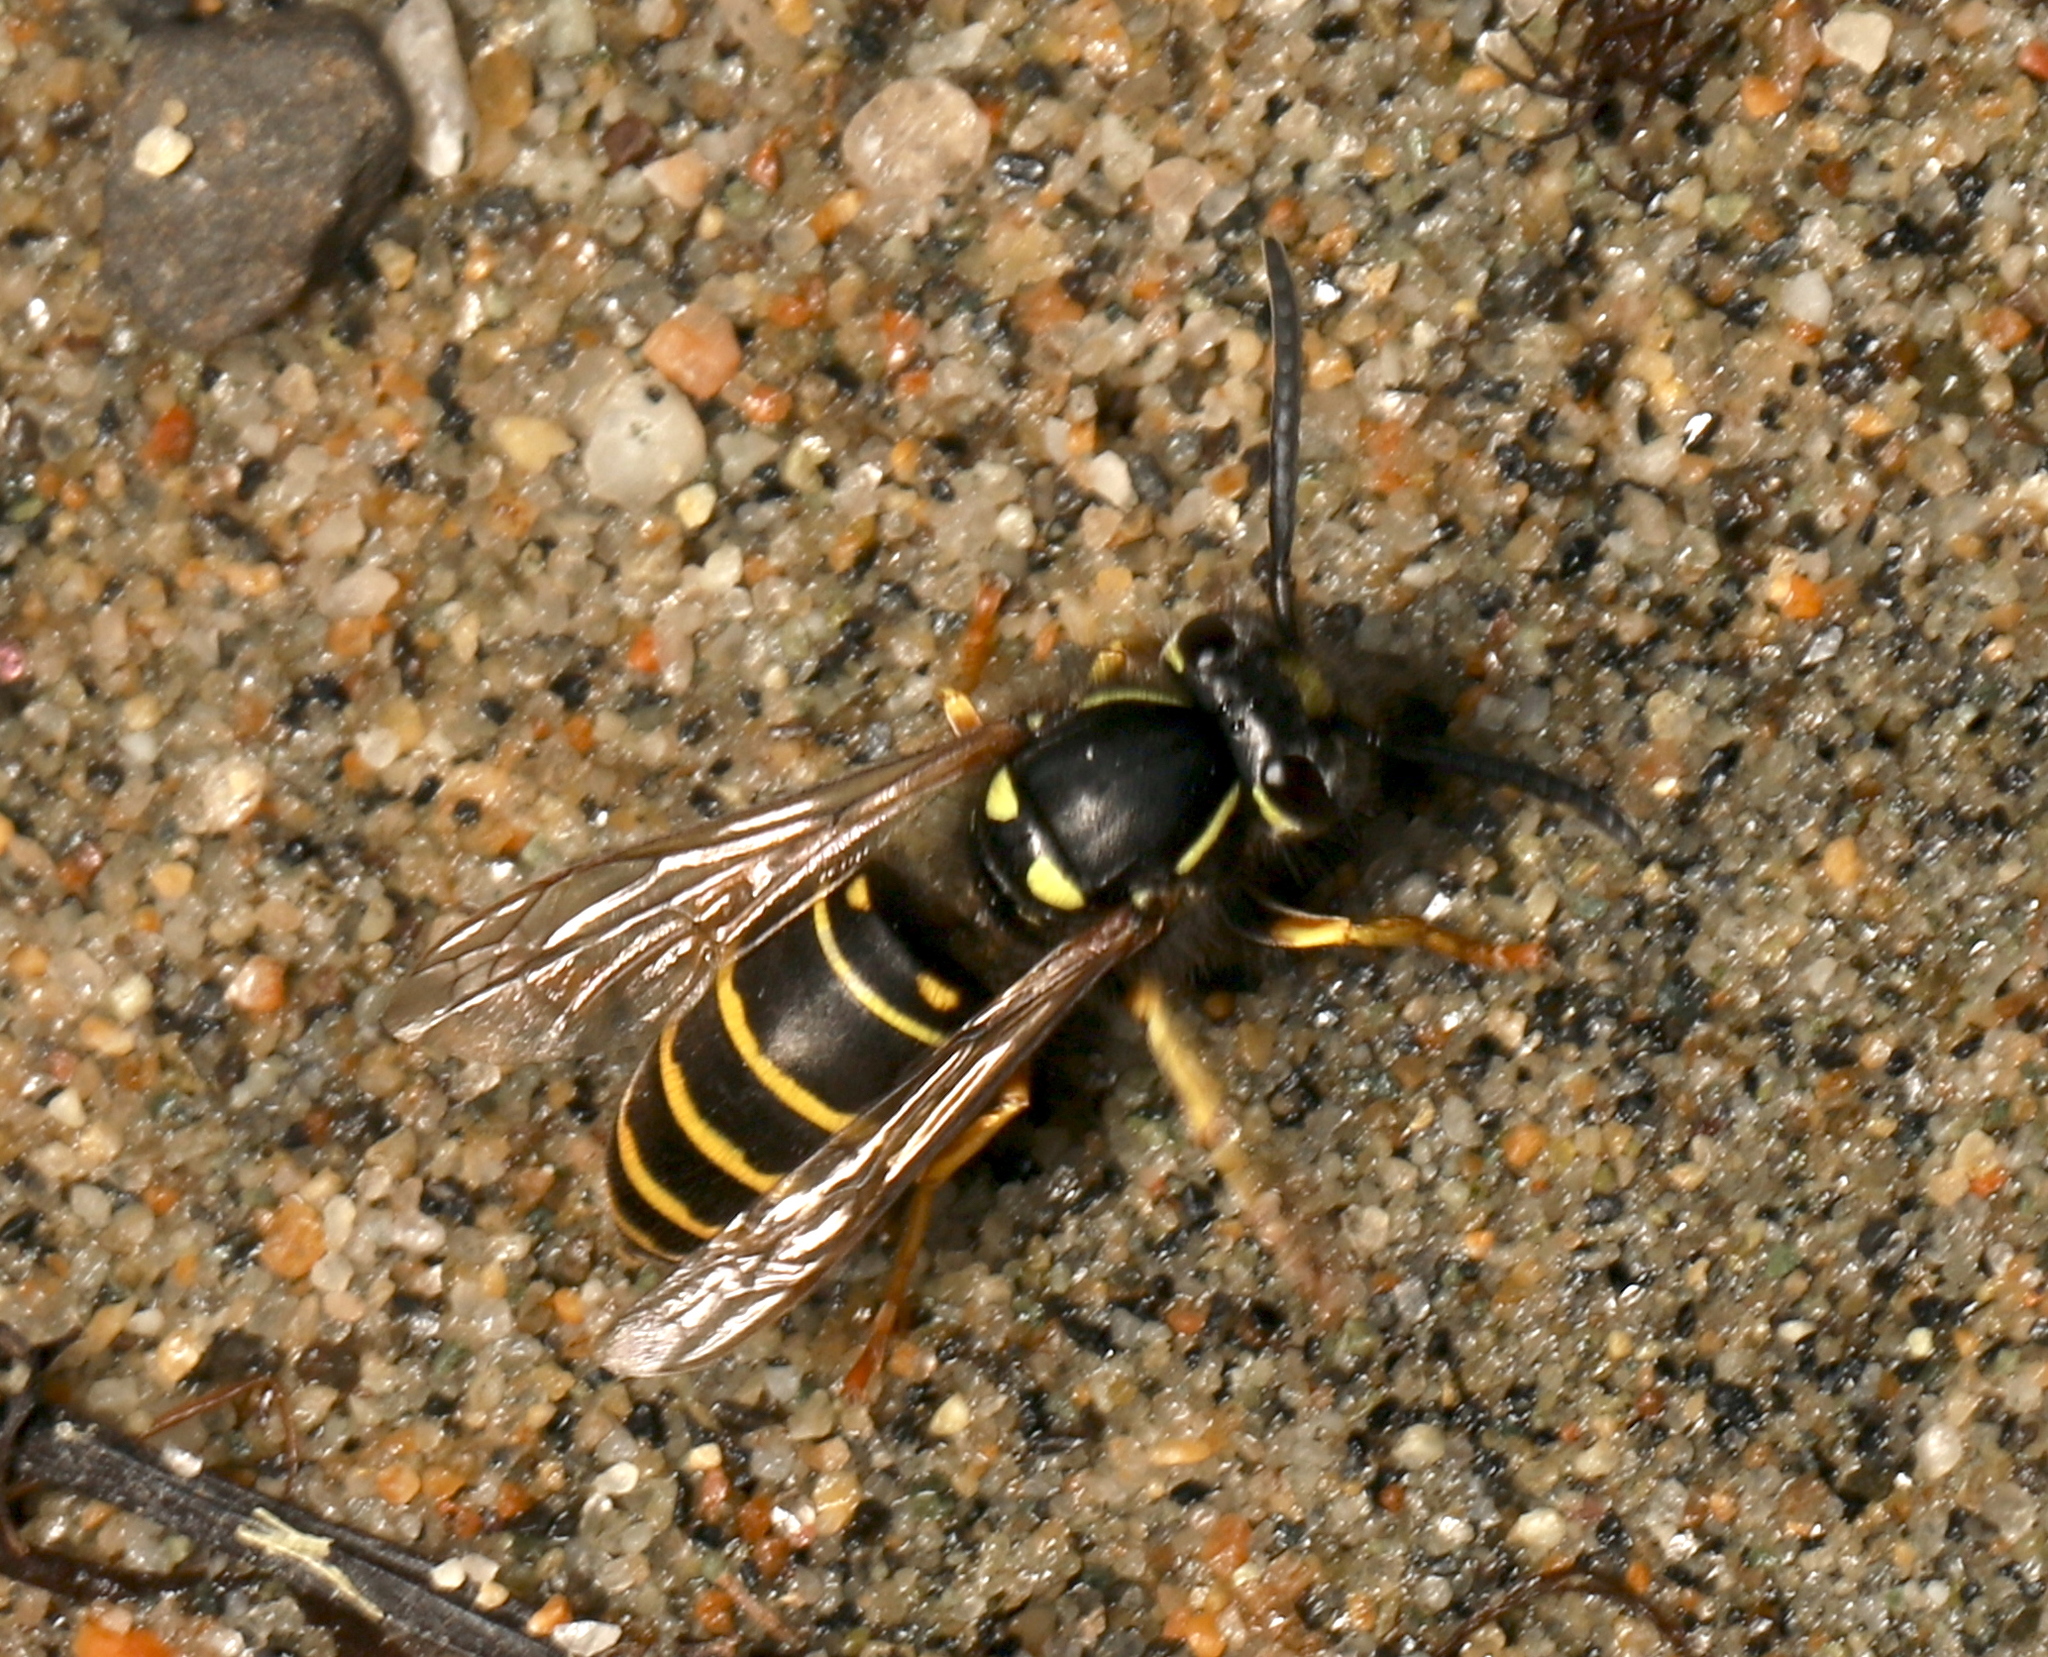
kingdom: Animalia
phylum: Arthropoda
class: Insecta
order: Hymenoptera
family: Vespidae
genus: Vespula
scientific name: Vespula acadica
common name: Forest yellowjacket
